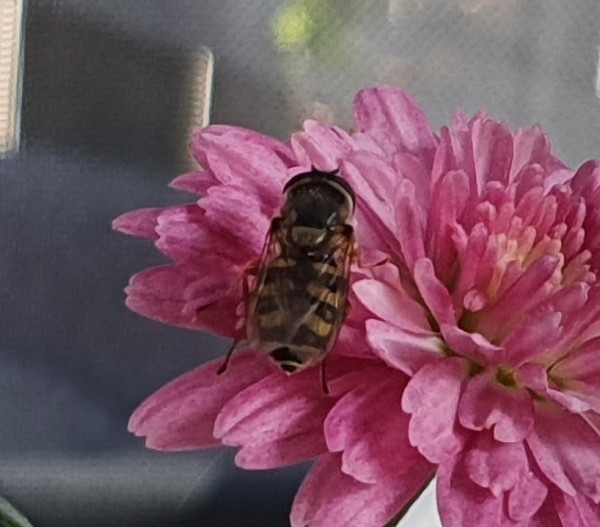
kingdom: Animalia
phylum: Arthropoda
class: Insecta
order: Diptera
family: Syrphidae
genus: Eupeodes
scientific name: Eupeodes corollae
